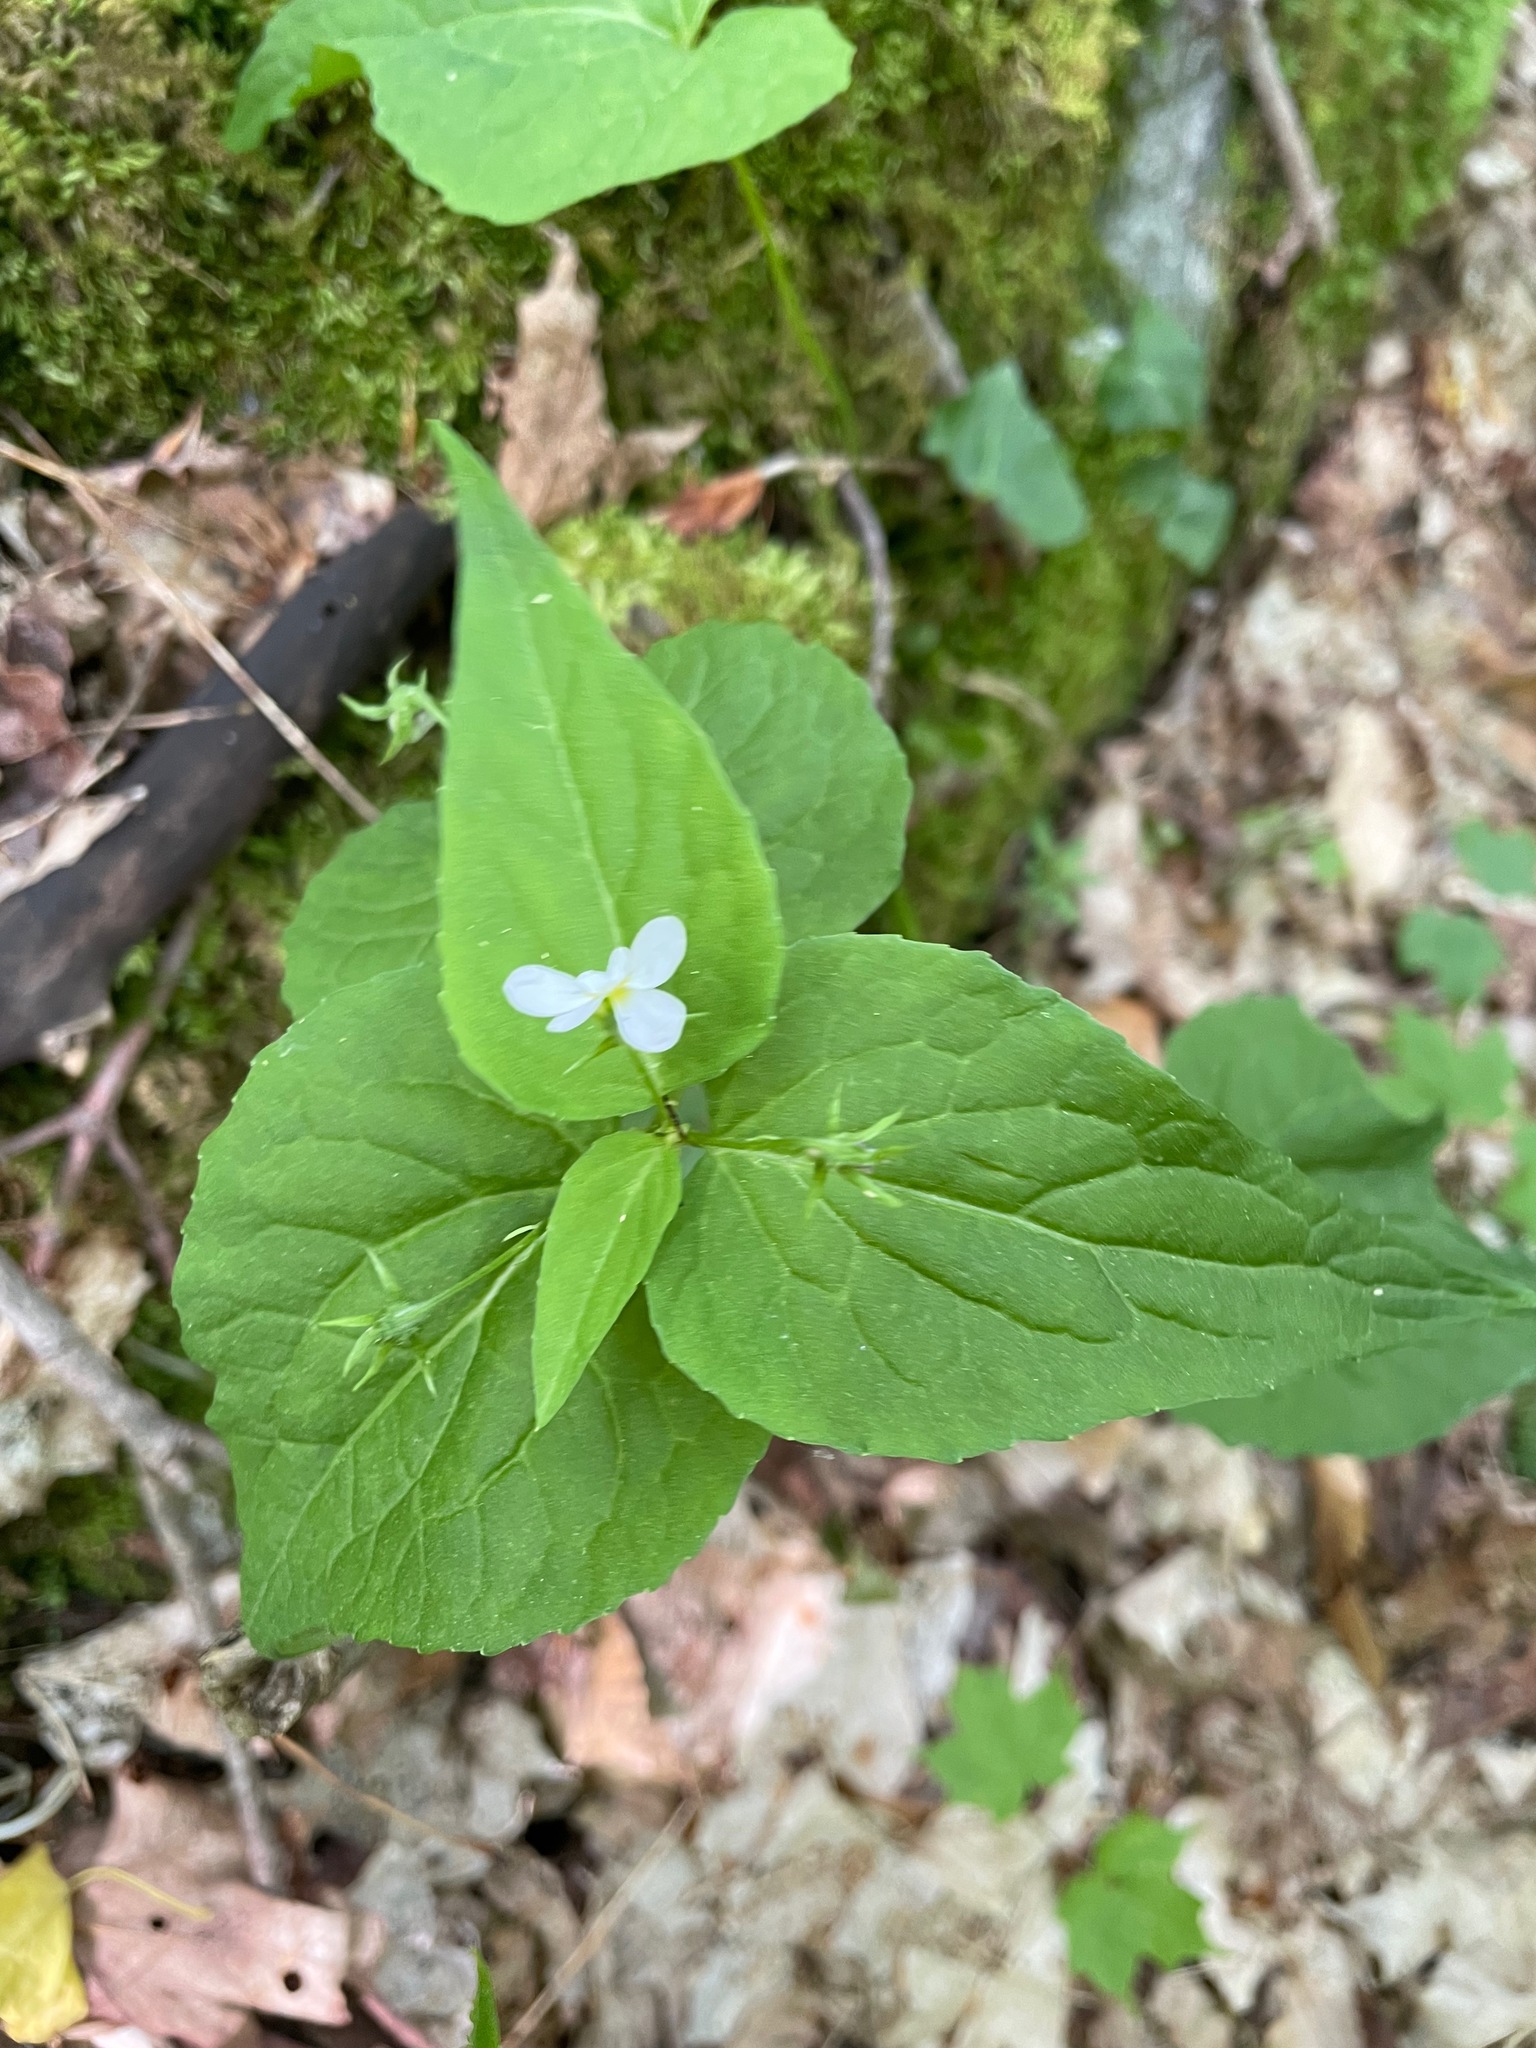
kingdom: Plantae
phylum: Tracheophyta
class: Magnoliopsida
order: Malpighiales
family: Violaceae
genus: Viola
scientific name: Viola canadensis
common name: Canada violet
